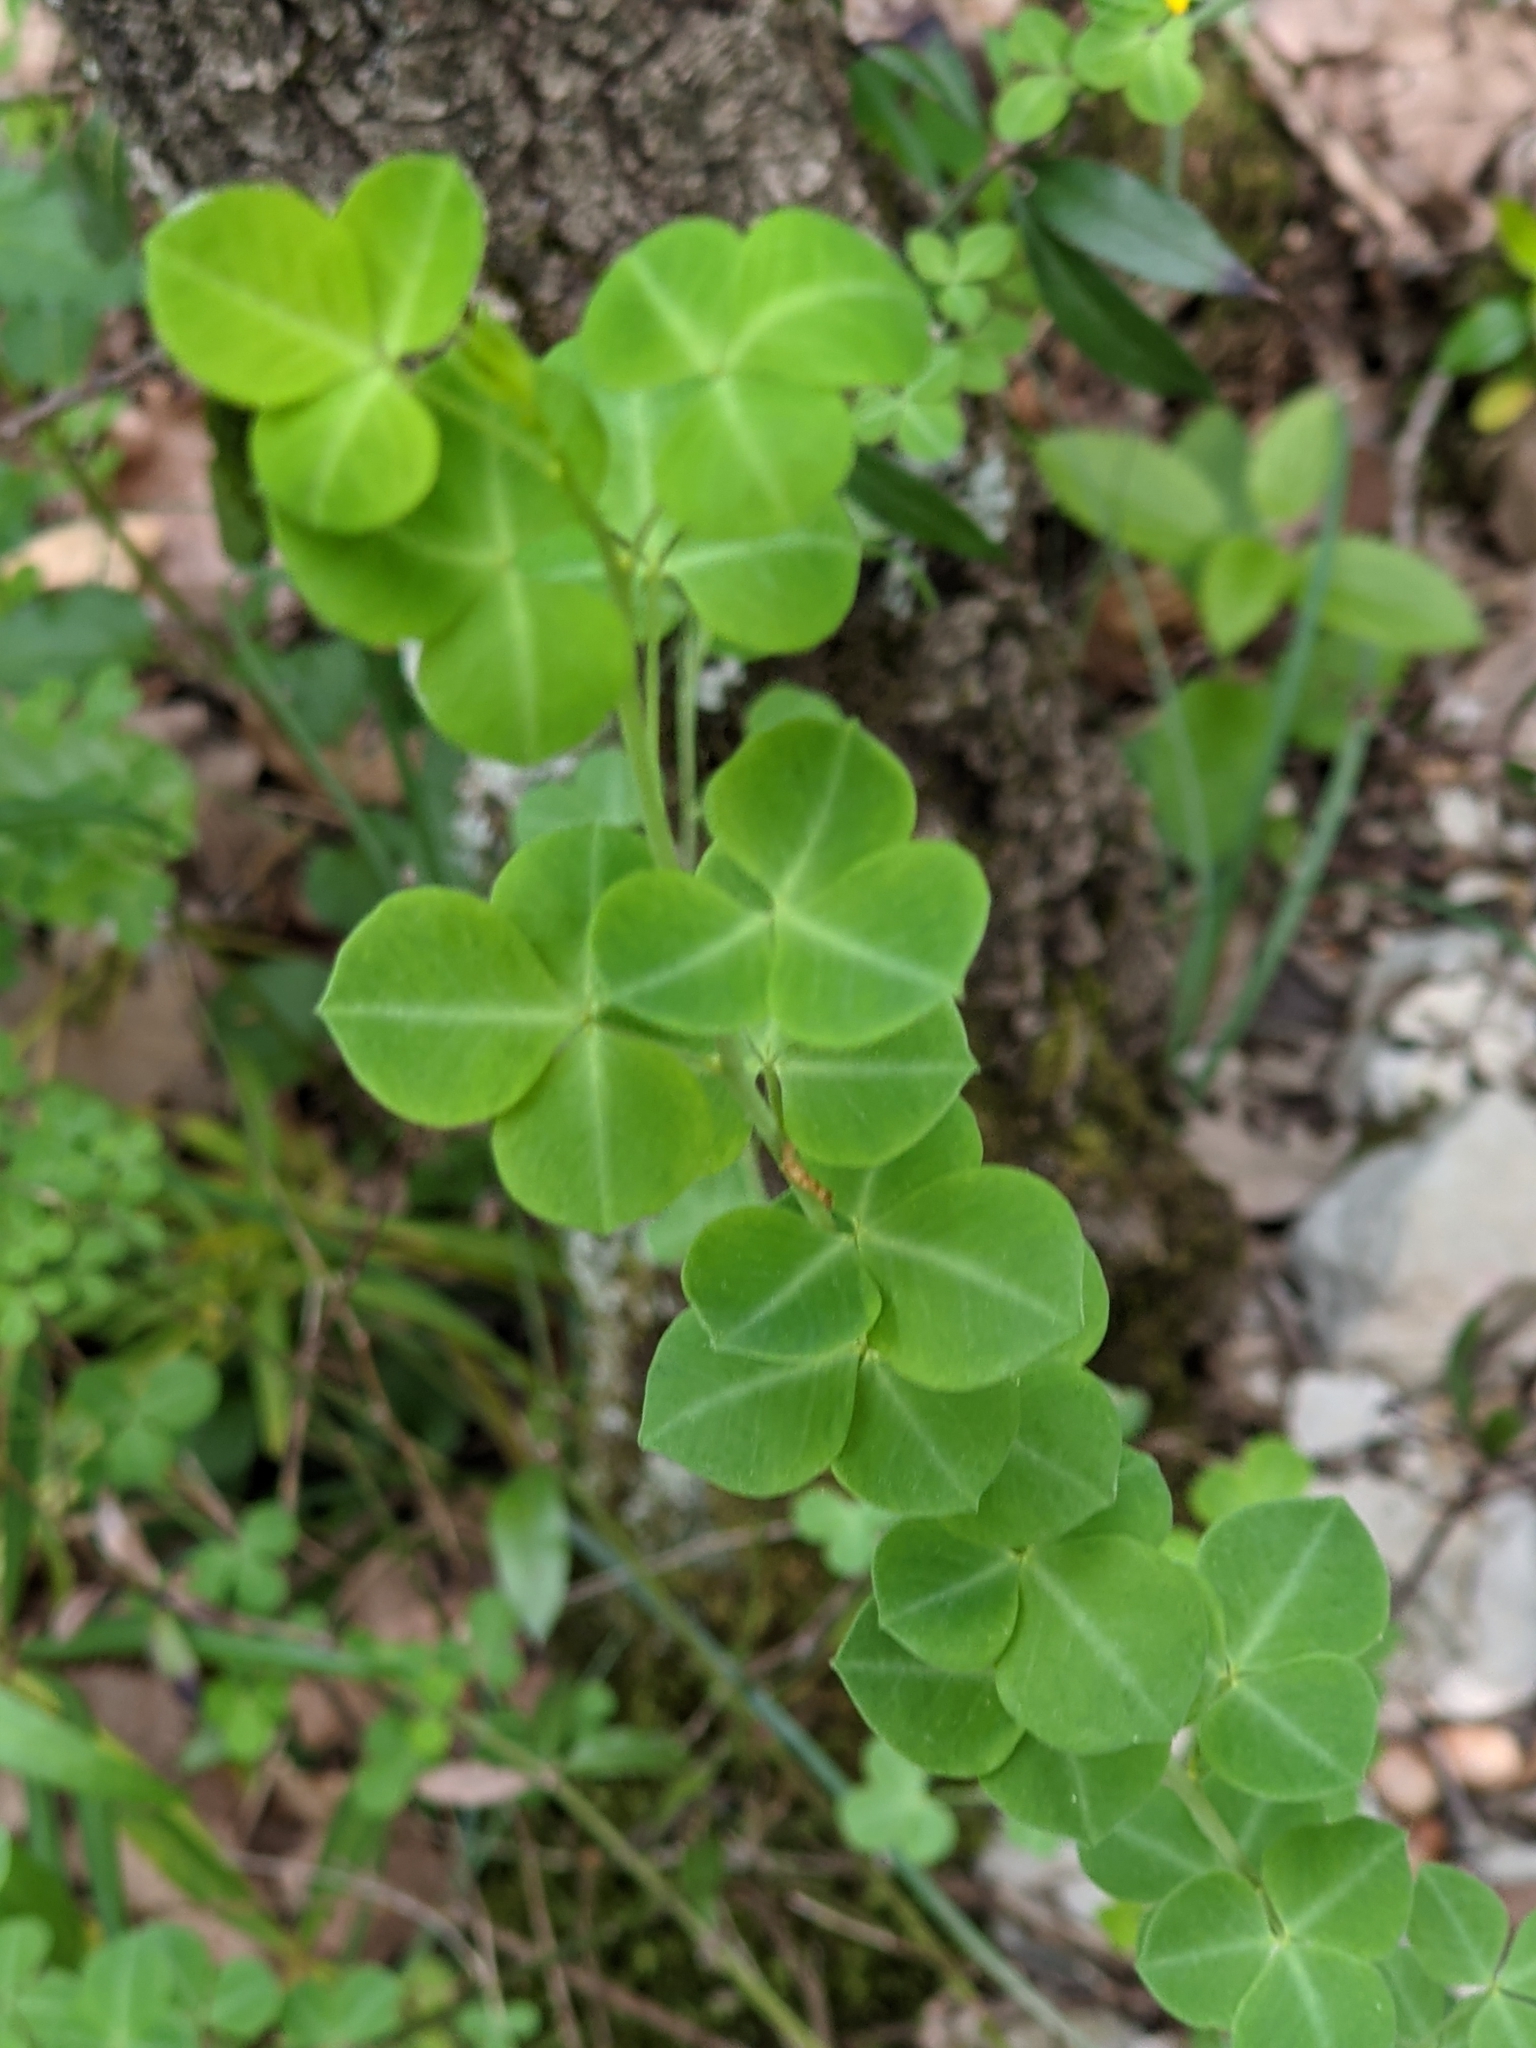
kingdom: Plantae
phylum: Tracheophyta
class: Magnoliopsida
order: Fabales
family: Fabaceae
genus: Cytisophyllum
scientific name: Cytisophyllum sessilifolium
